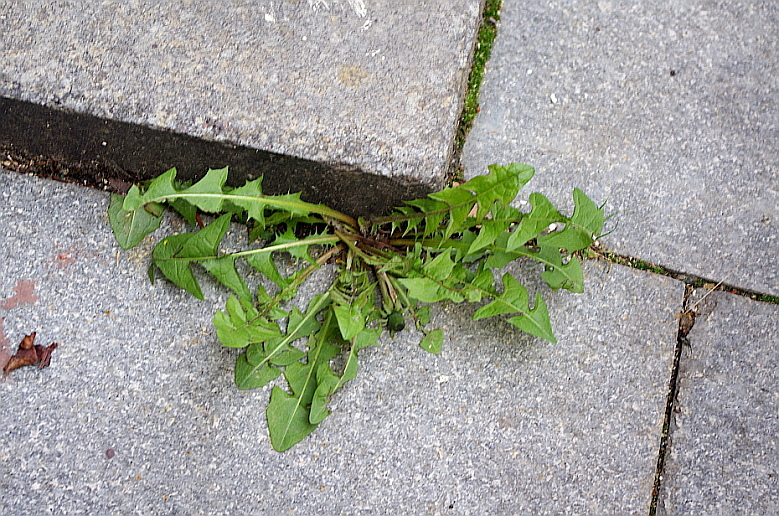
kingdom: Plantae
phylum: Tracheophyta
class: Magnoliopsida
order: Asterales
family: Asteraceae
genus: Taraxacum
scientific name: Taraxacum officinale
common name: Common dandelion
